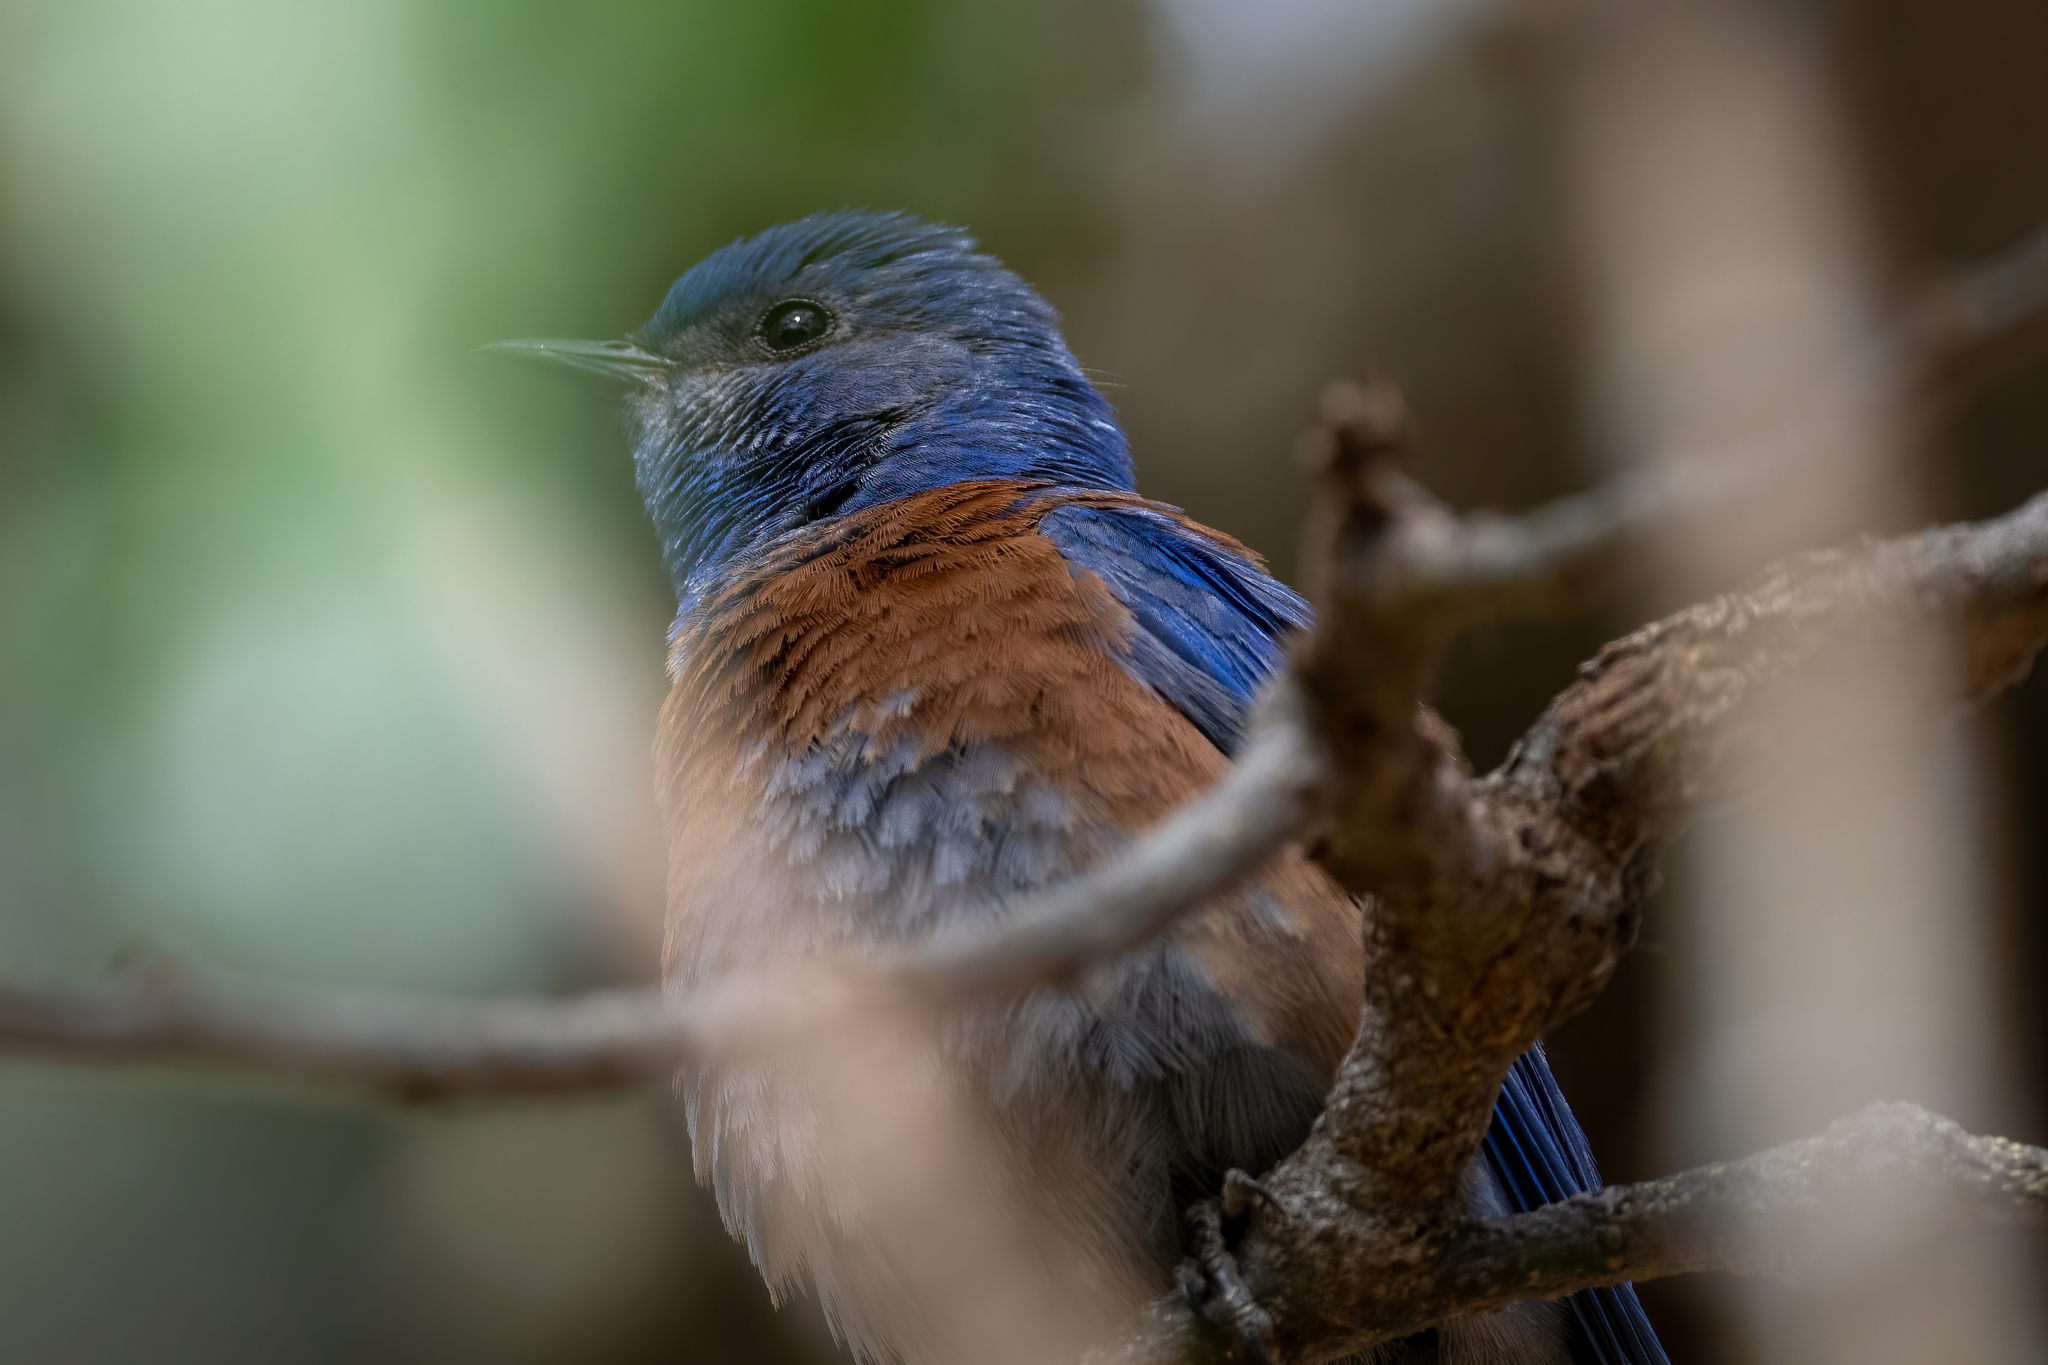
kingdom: Animalia
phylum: Chordata
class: Aves
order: Passeriformes
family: Turdidae
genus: Sialia
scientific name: Sialia mexicana
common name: Western bluebird
